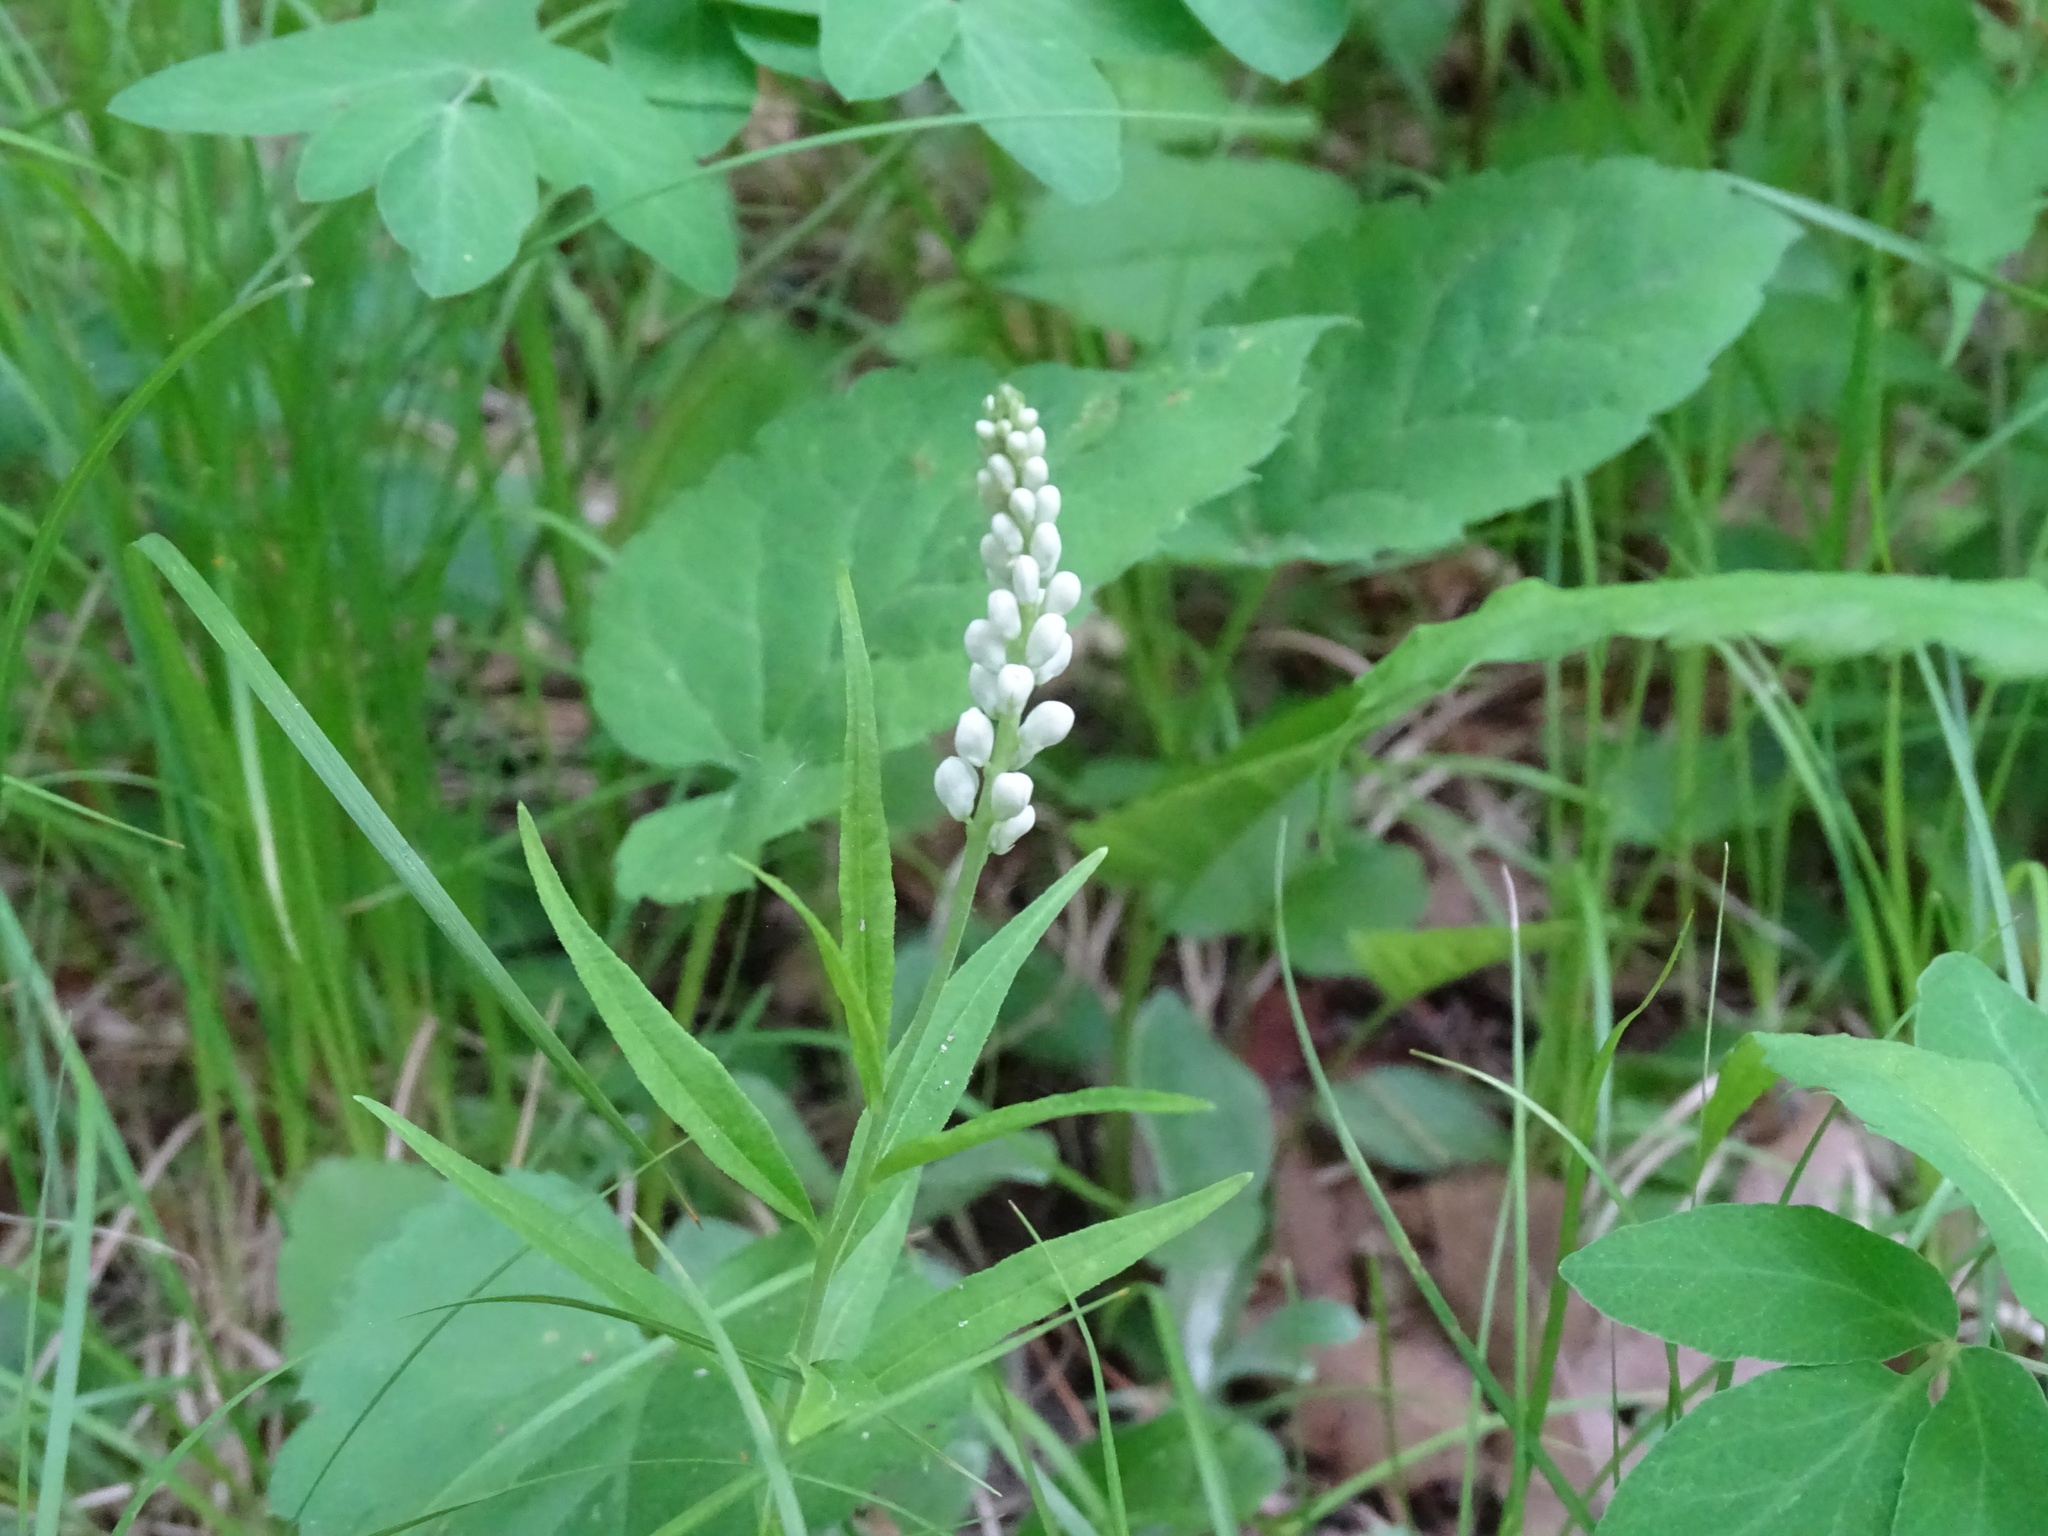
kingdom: Plantae
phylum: Tracheophyta
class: Magnoliopsida
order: Fabales
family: Polygalaceae
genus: Polygala
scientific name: Polygala senega
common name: Seneca snakeroot
